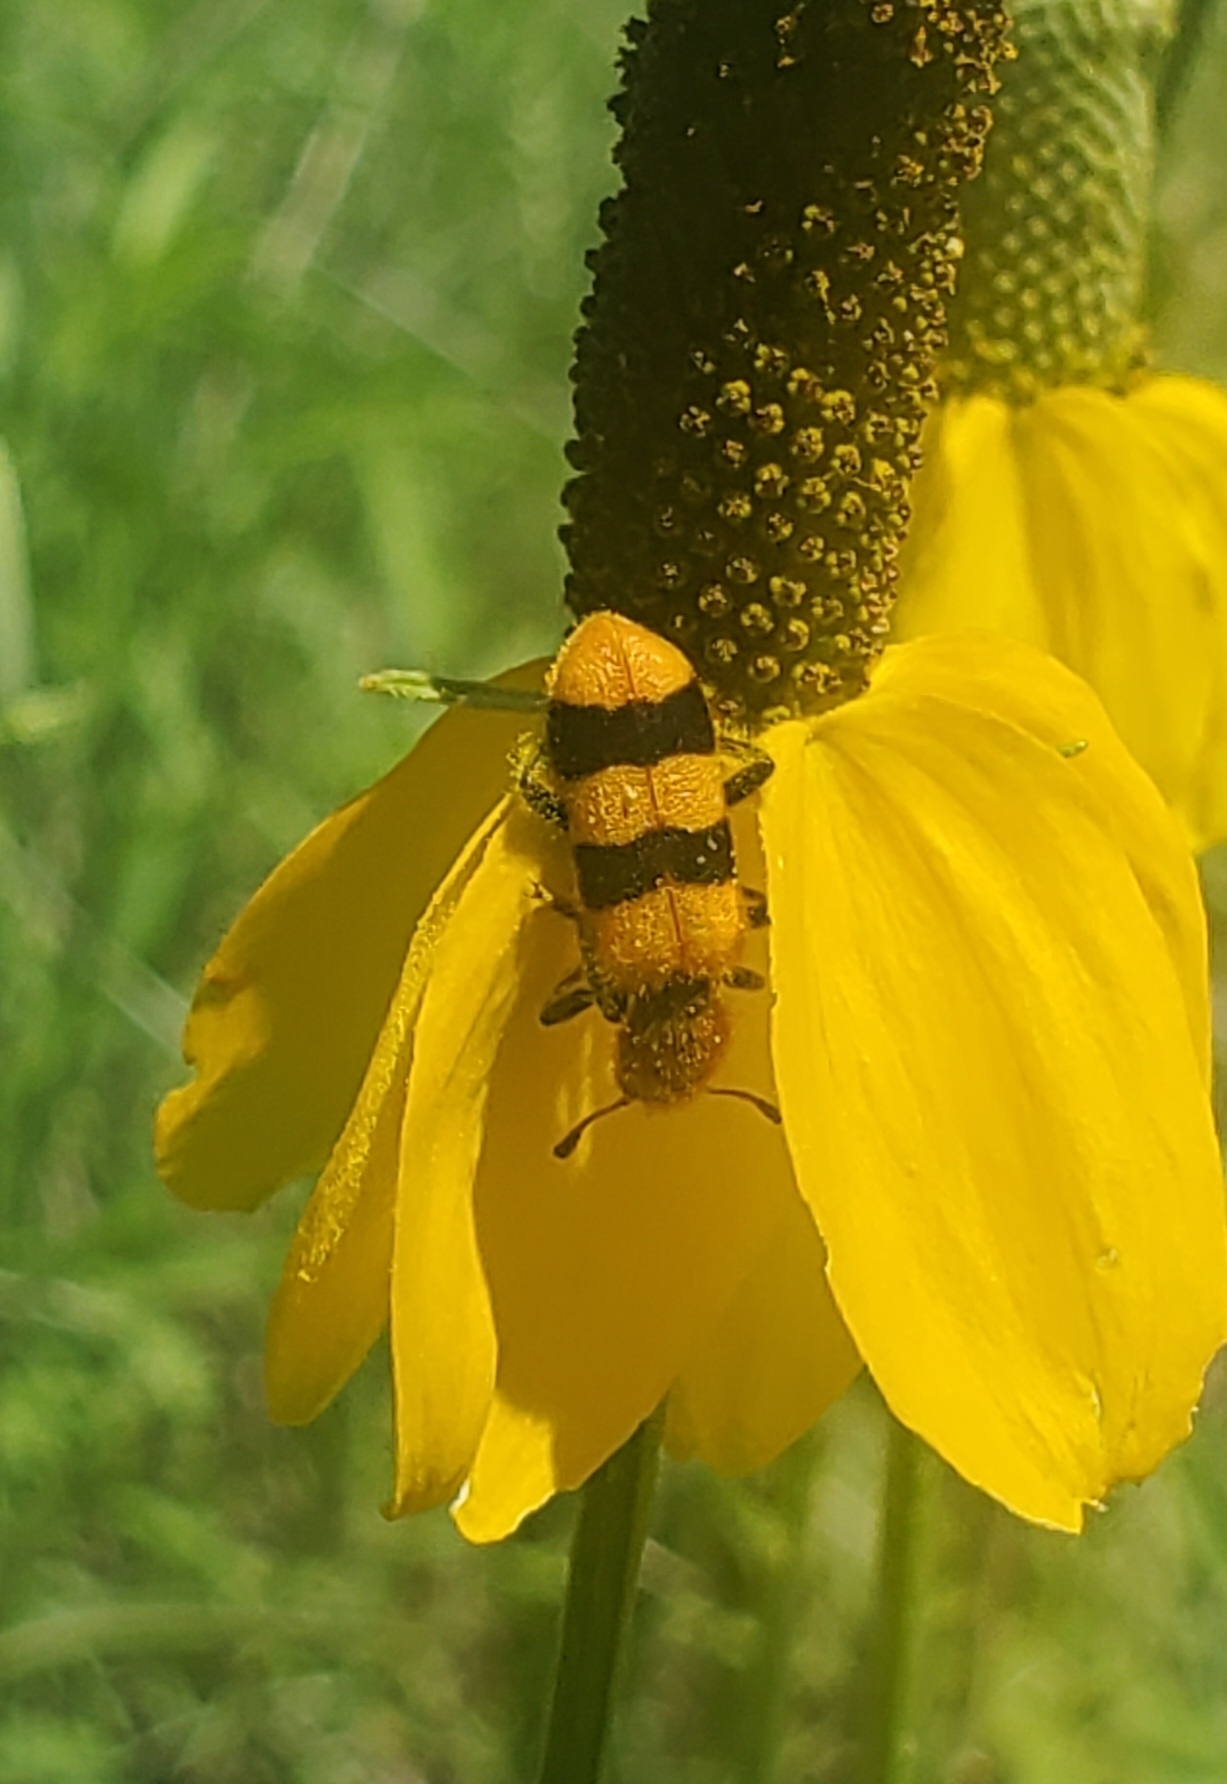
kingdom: Animalia
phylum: Arthropoda
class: Insecta
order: Coleoptera
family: Cleridae
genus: Trichodes
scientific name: Trichodes bibalteatus
